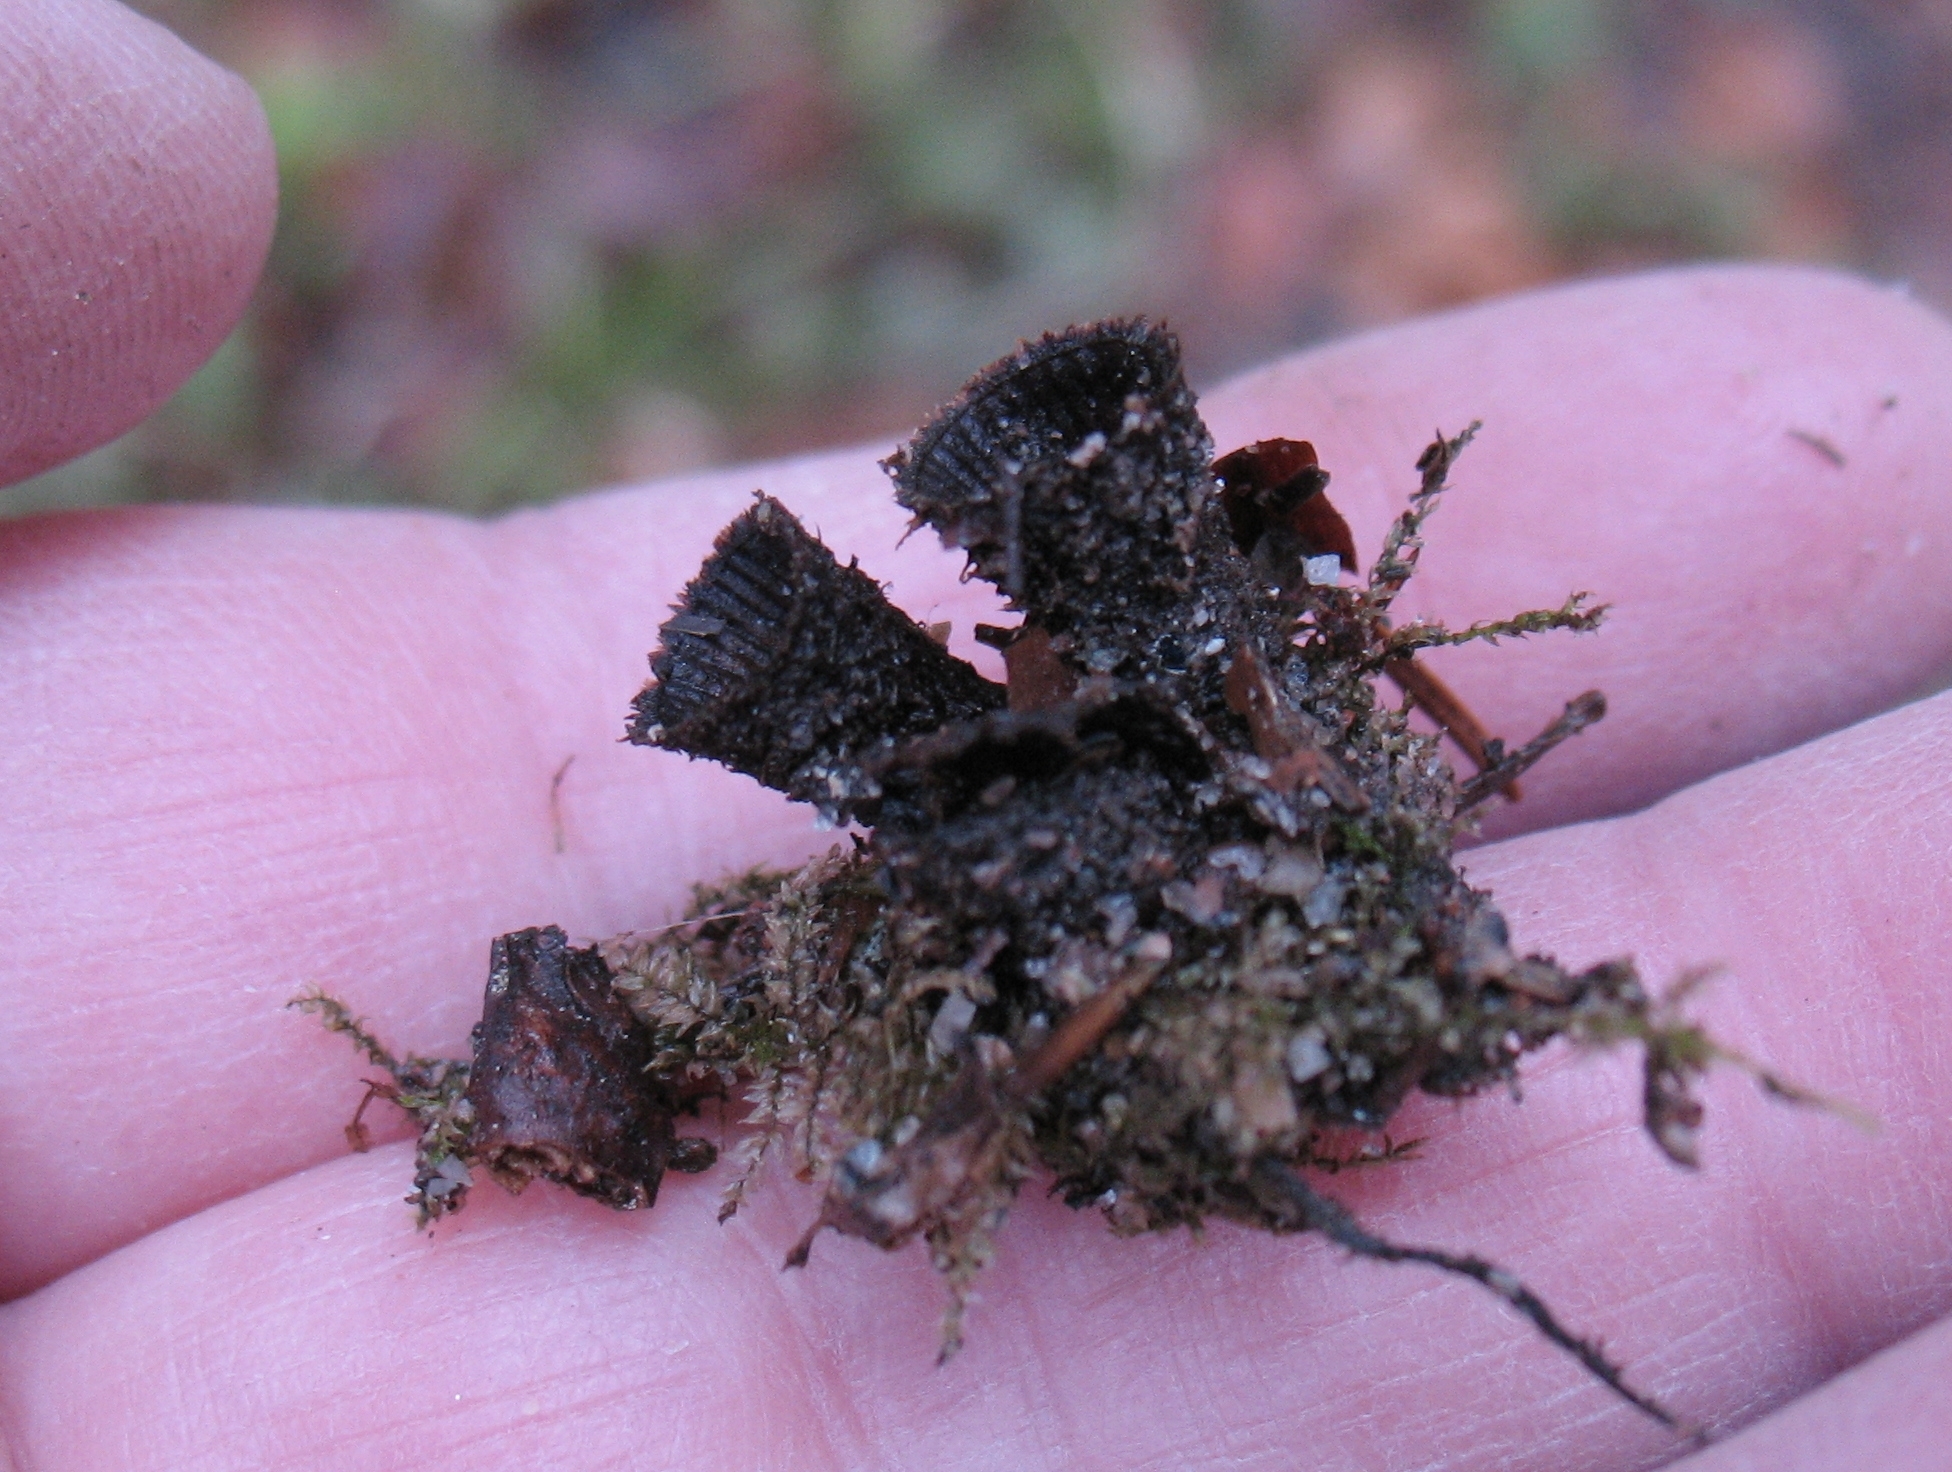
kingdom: Fungi
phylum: Basidiomycota
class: Agaricomycetes
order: Agaricales
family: Agaricaceae
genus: Cyathus
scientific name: Cyathus striatus
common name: Fluted bird's nest
